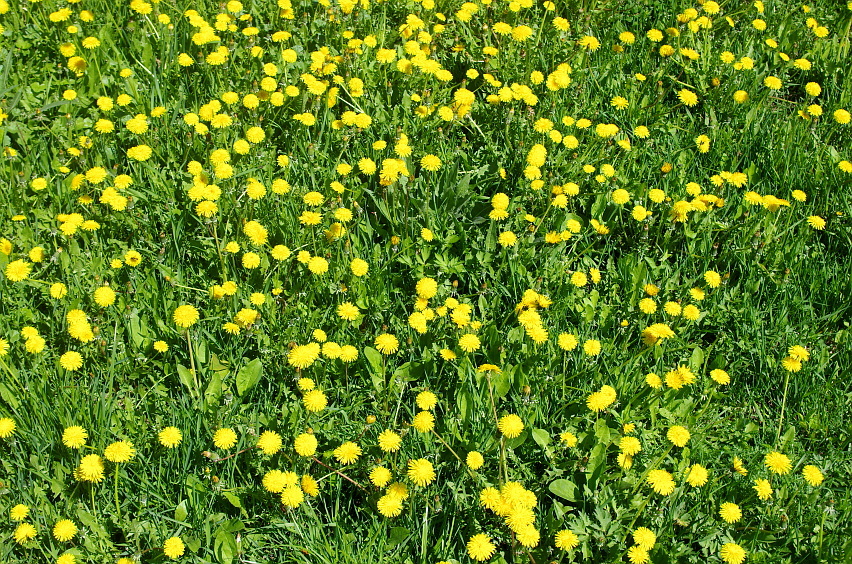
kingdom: Plantae
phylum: Tracheophyta
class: Magnoliopsida
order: Asterales
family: Asteraceae
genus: Taraxacum
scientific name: Taraxacum officinale
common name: Common dandelion
